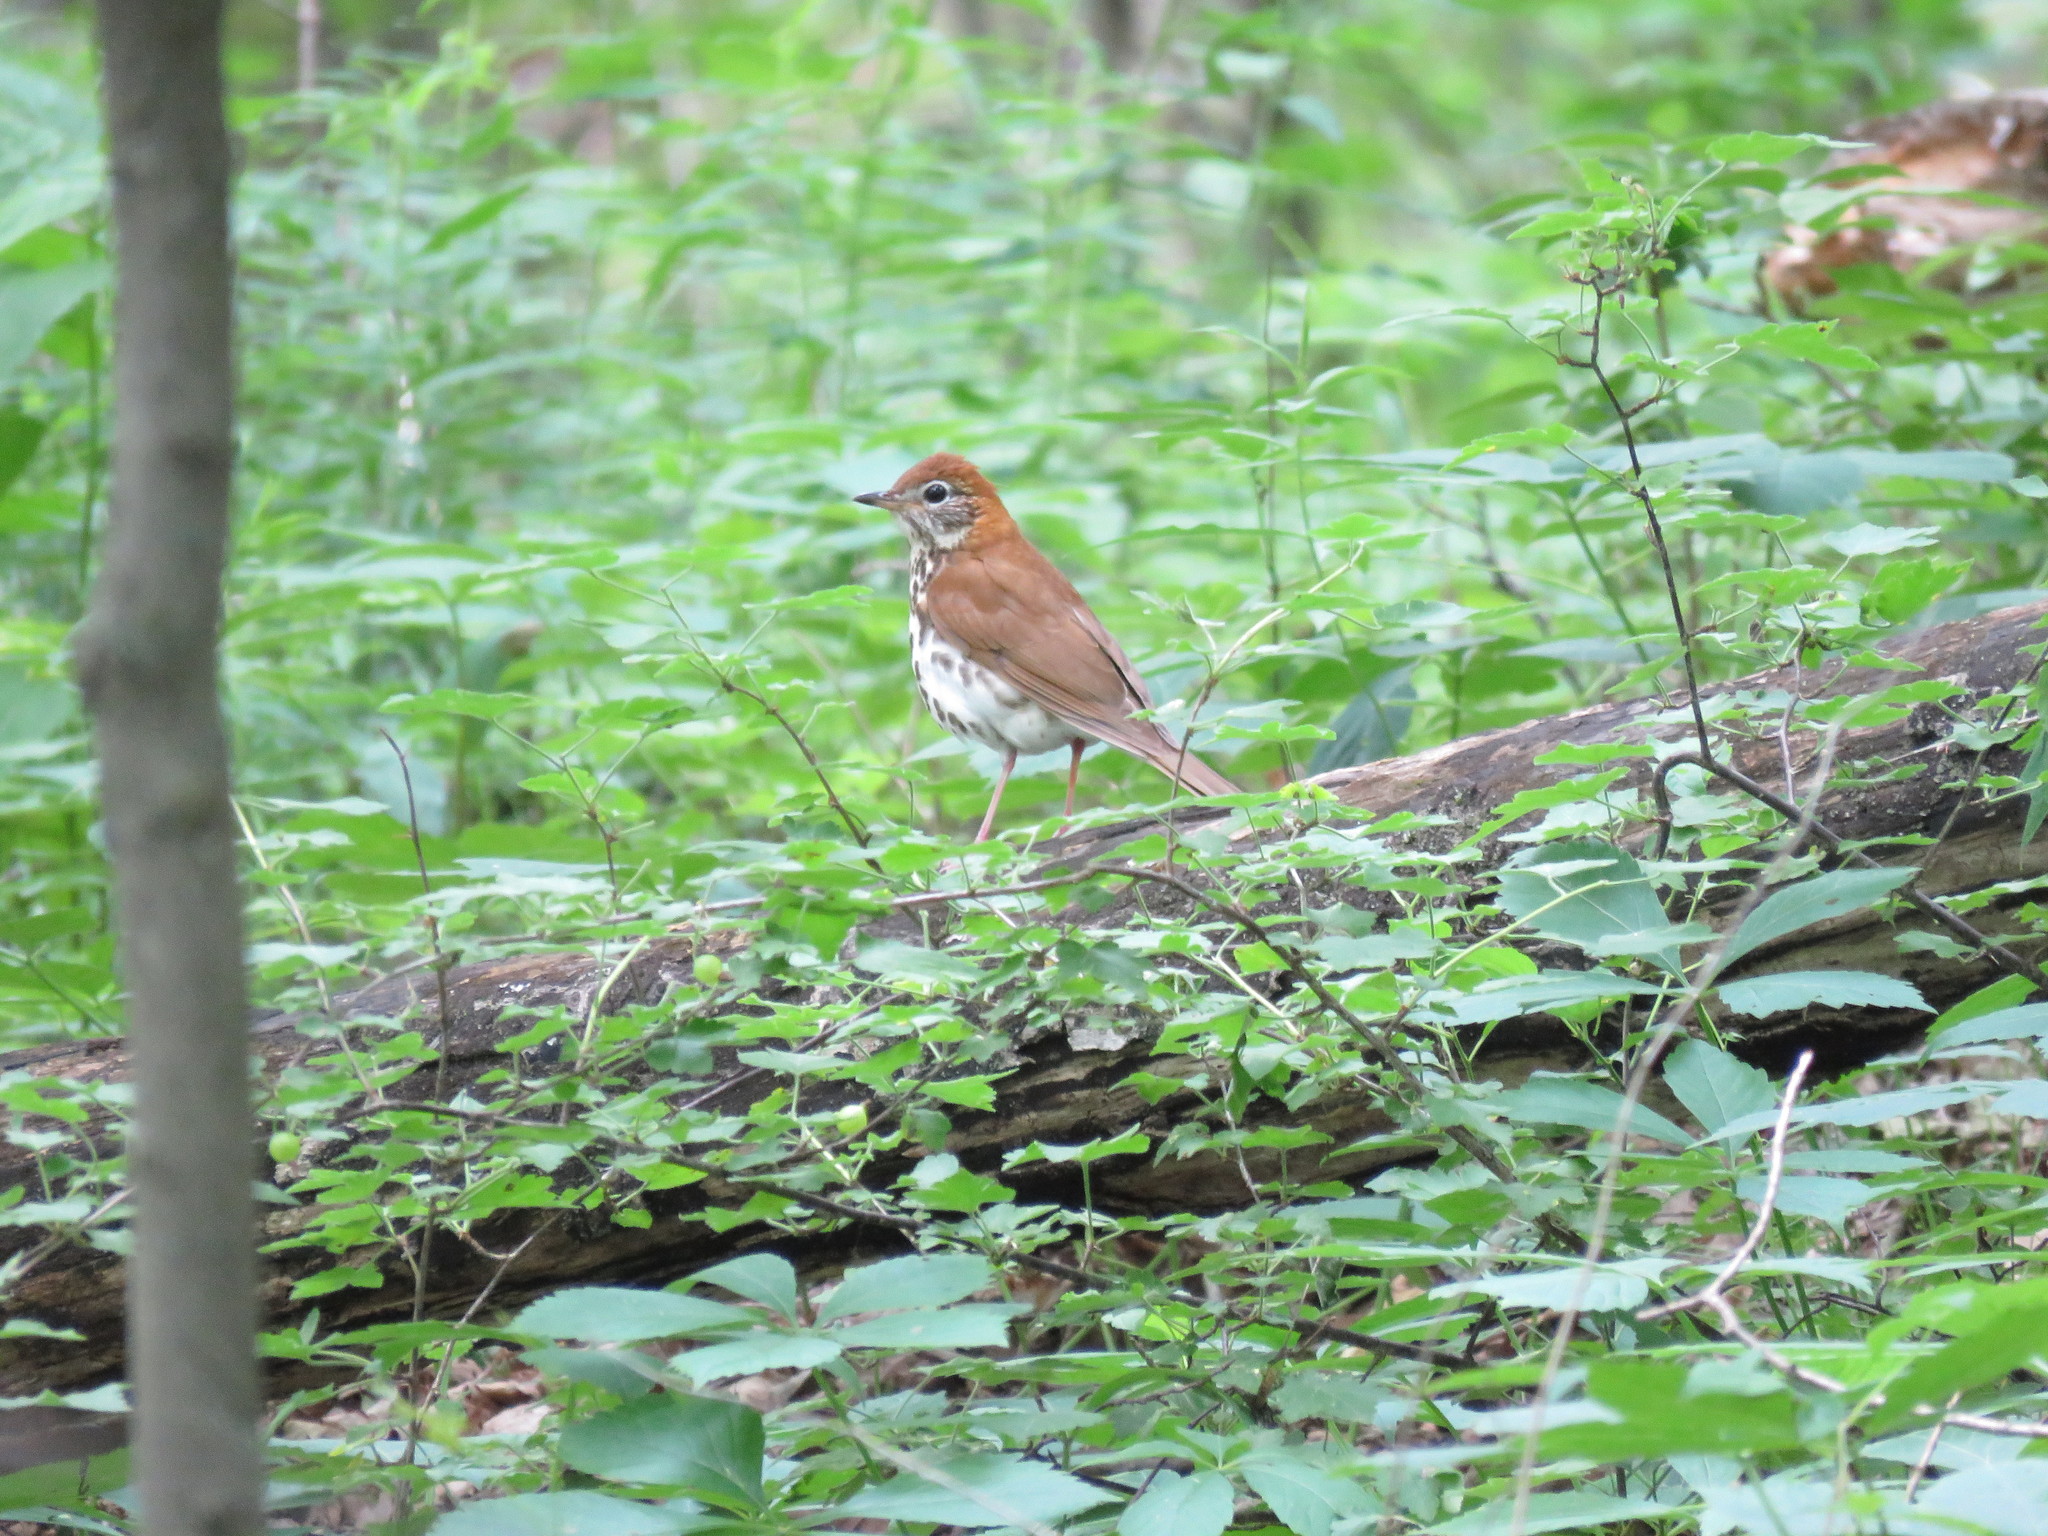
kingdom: Animalia
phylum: Chordata
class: Aves
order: Passeriformes
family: Turdidae
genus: Hylocichla
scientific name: Hylocichla mustelina
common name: Wood thrush
